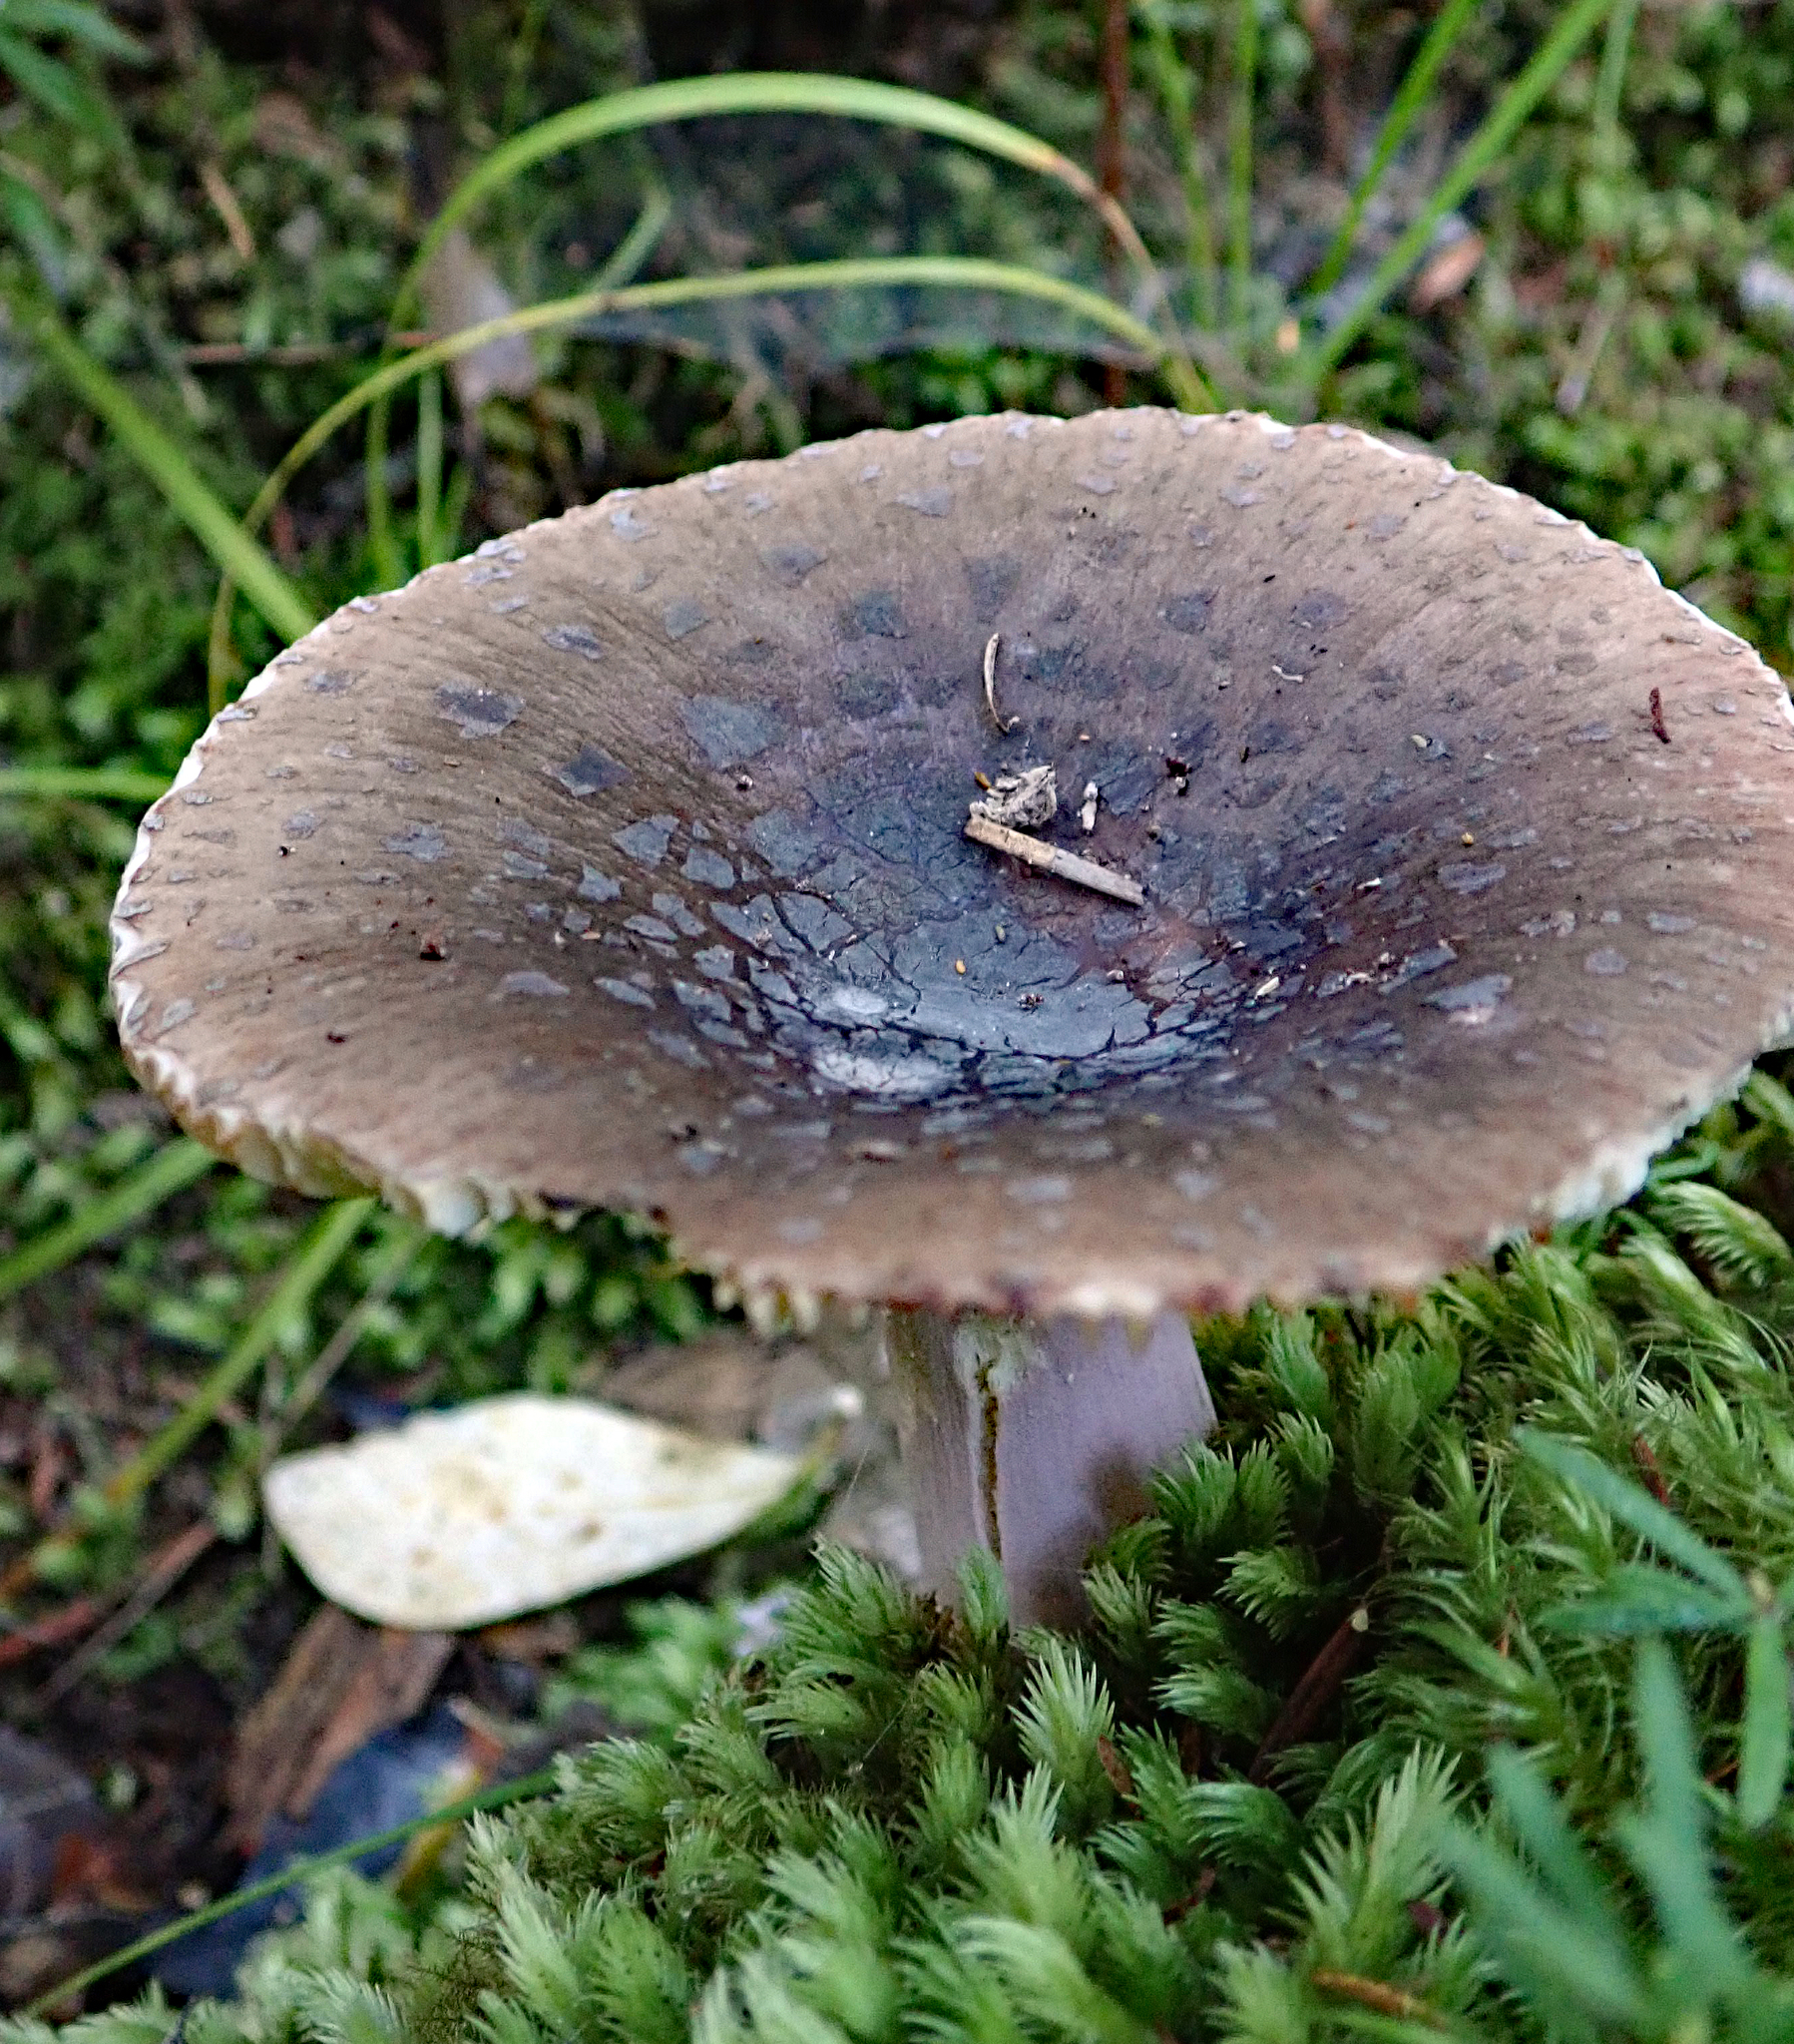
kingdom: Fungi
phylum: Basidiomycota
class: Agaricomycetes
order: Russulales
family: Russulaceae
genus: Russula
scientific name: Russula griseoviridis
